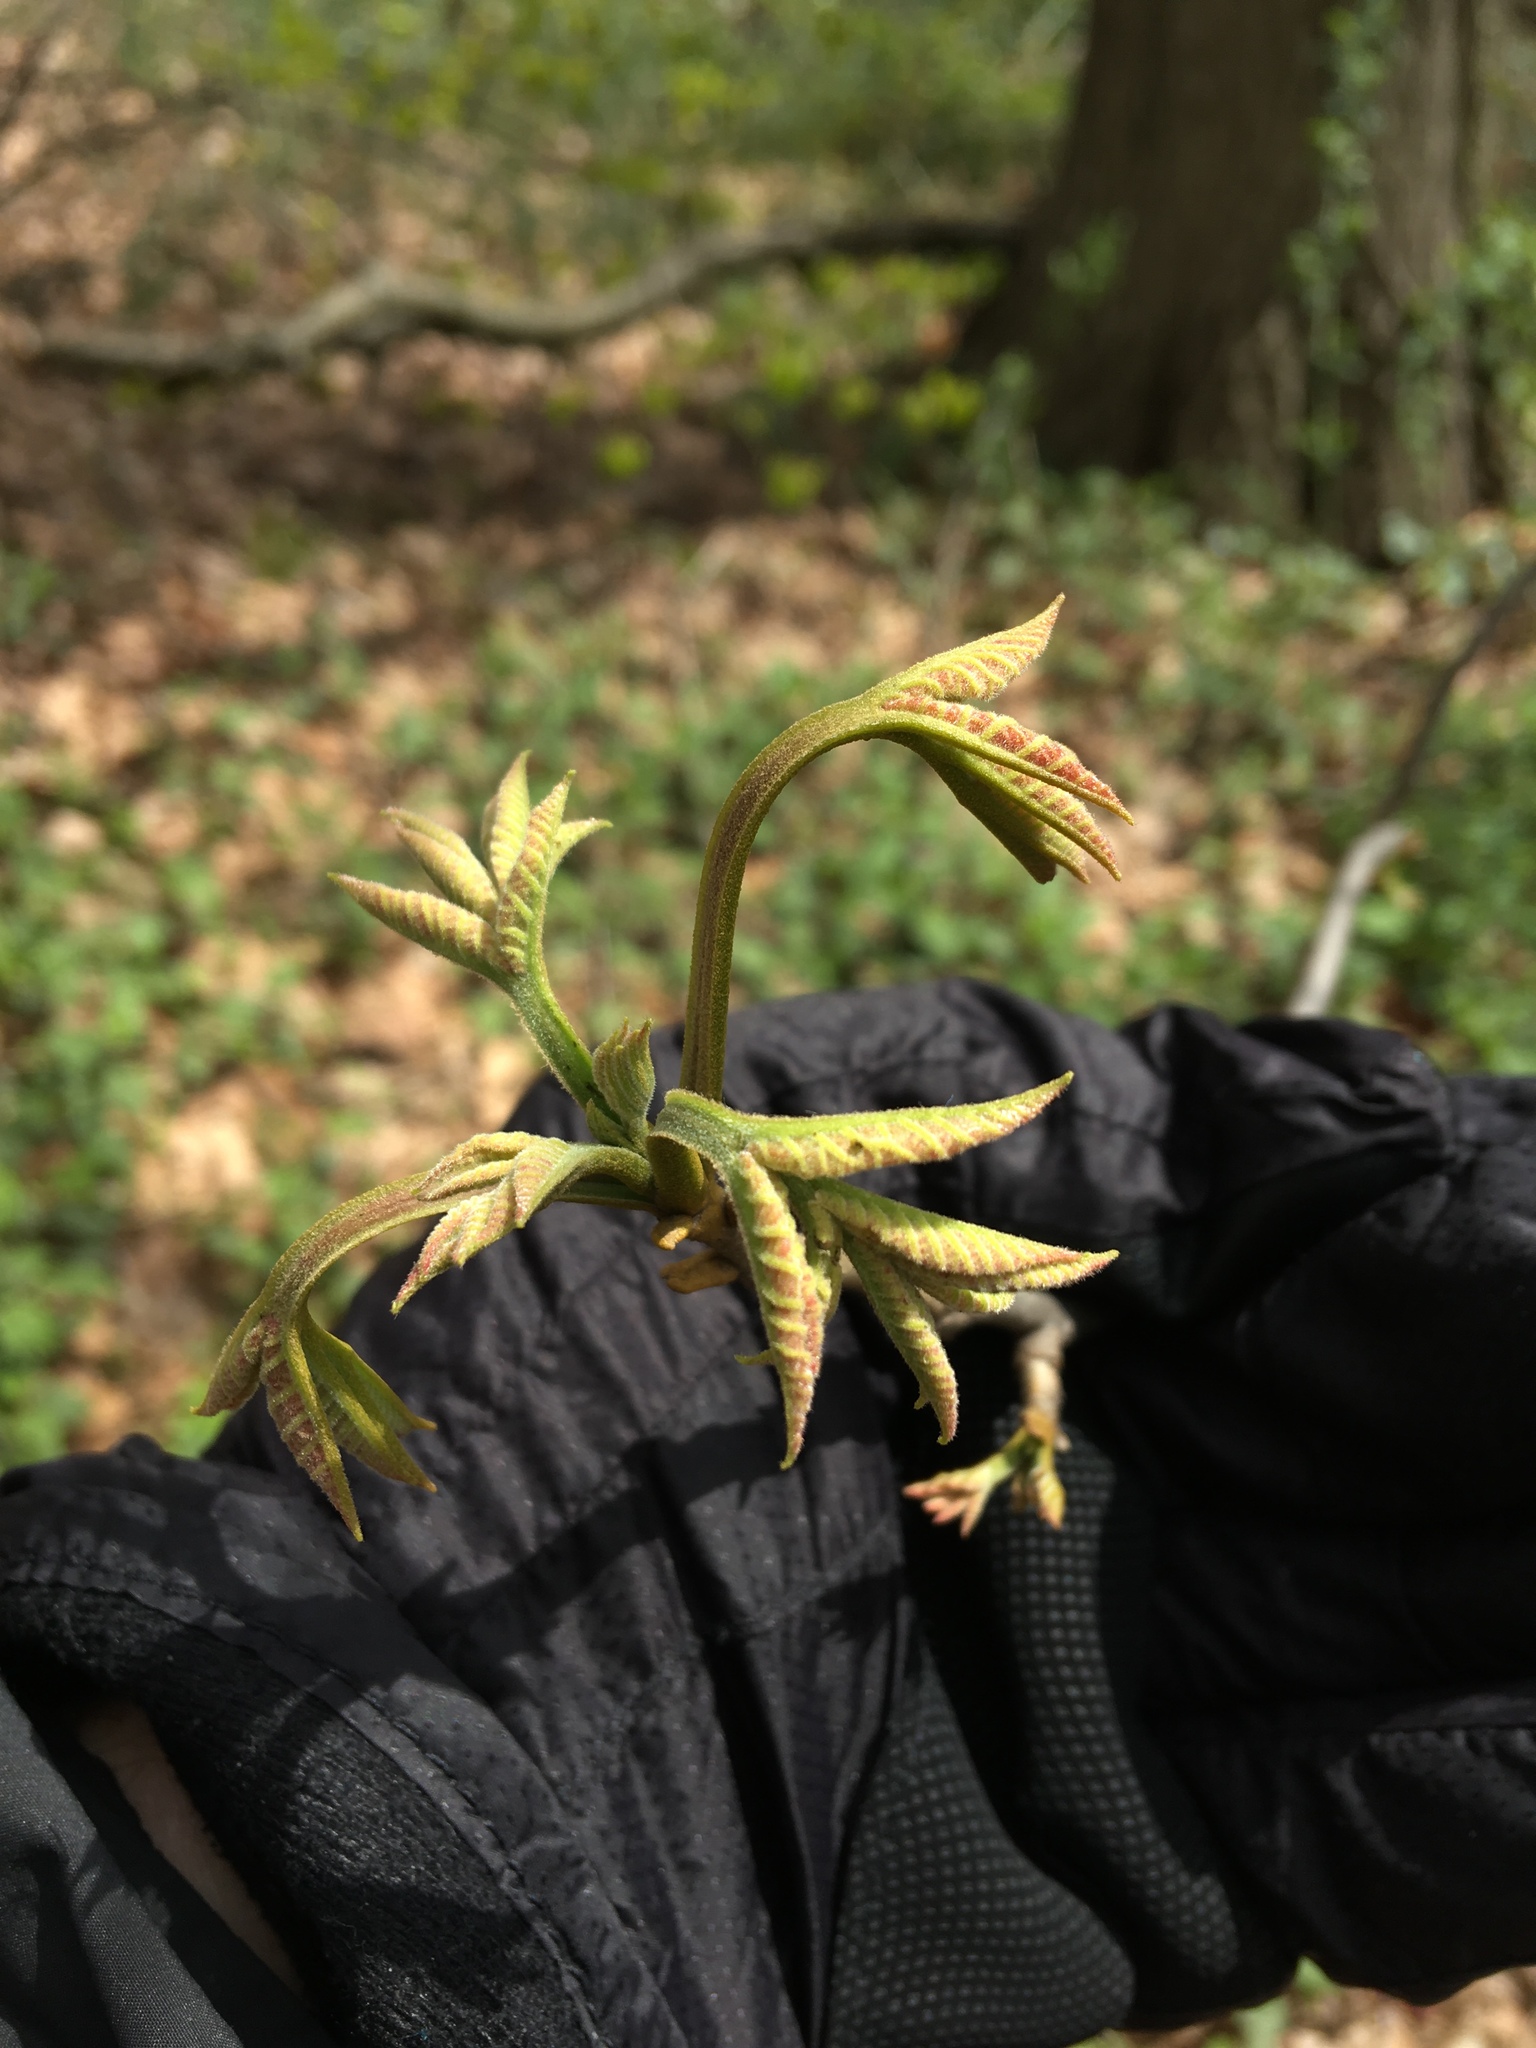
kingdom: Plantae
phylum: Tracheophyta
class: Magnoliopsida
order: Fagales
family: Juglandaceae
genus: Carya
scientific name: Carya cordiformis
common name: Bitternut hickory
